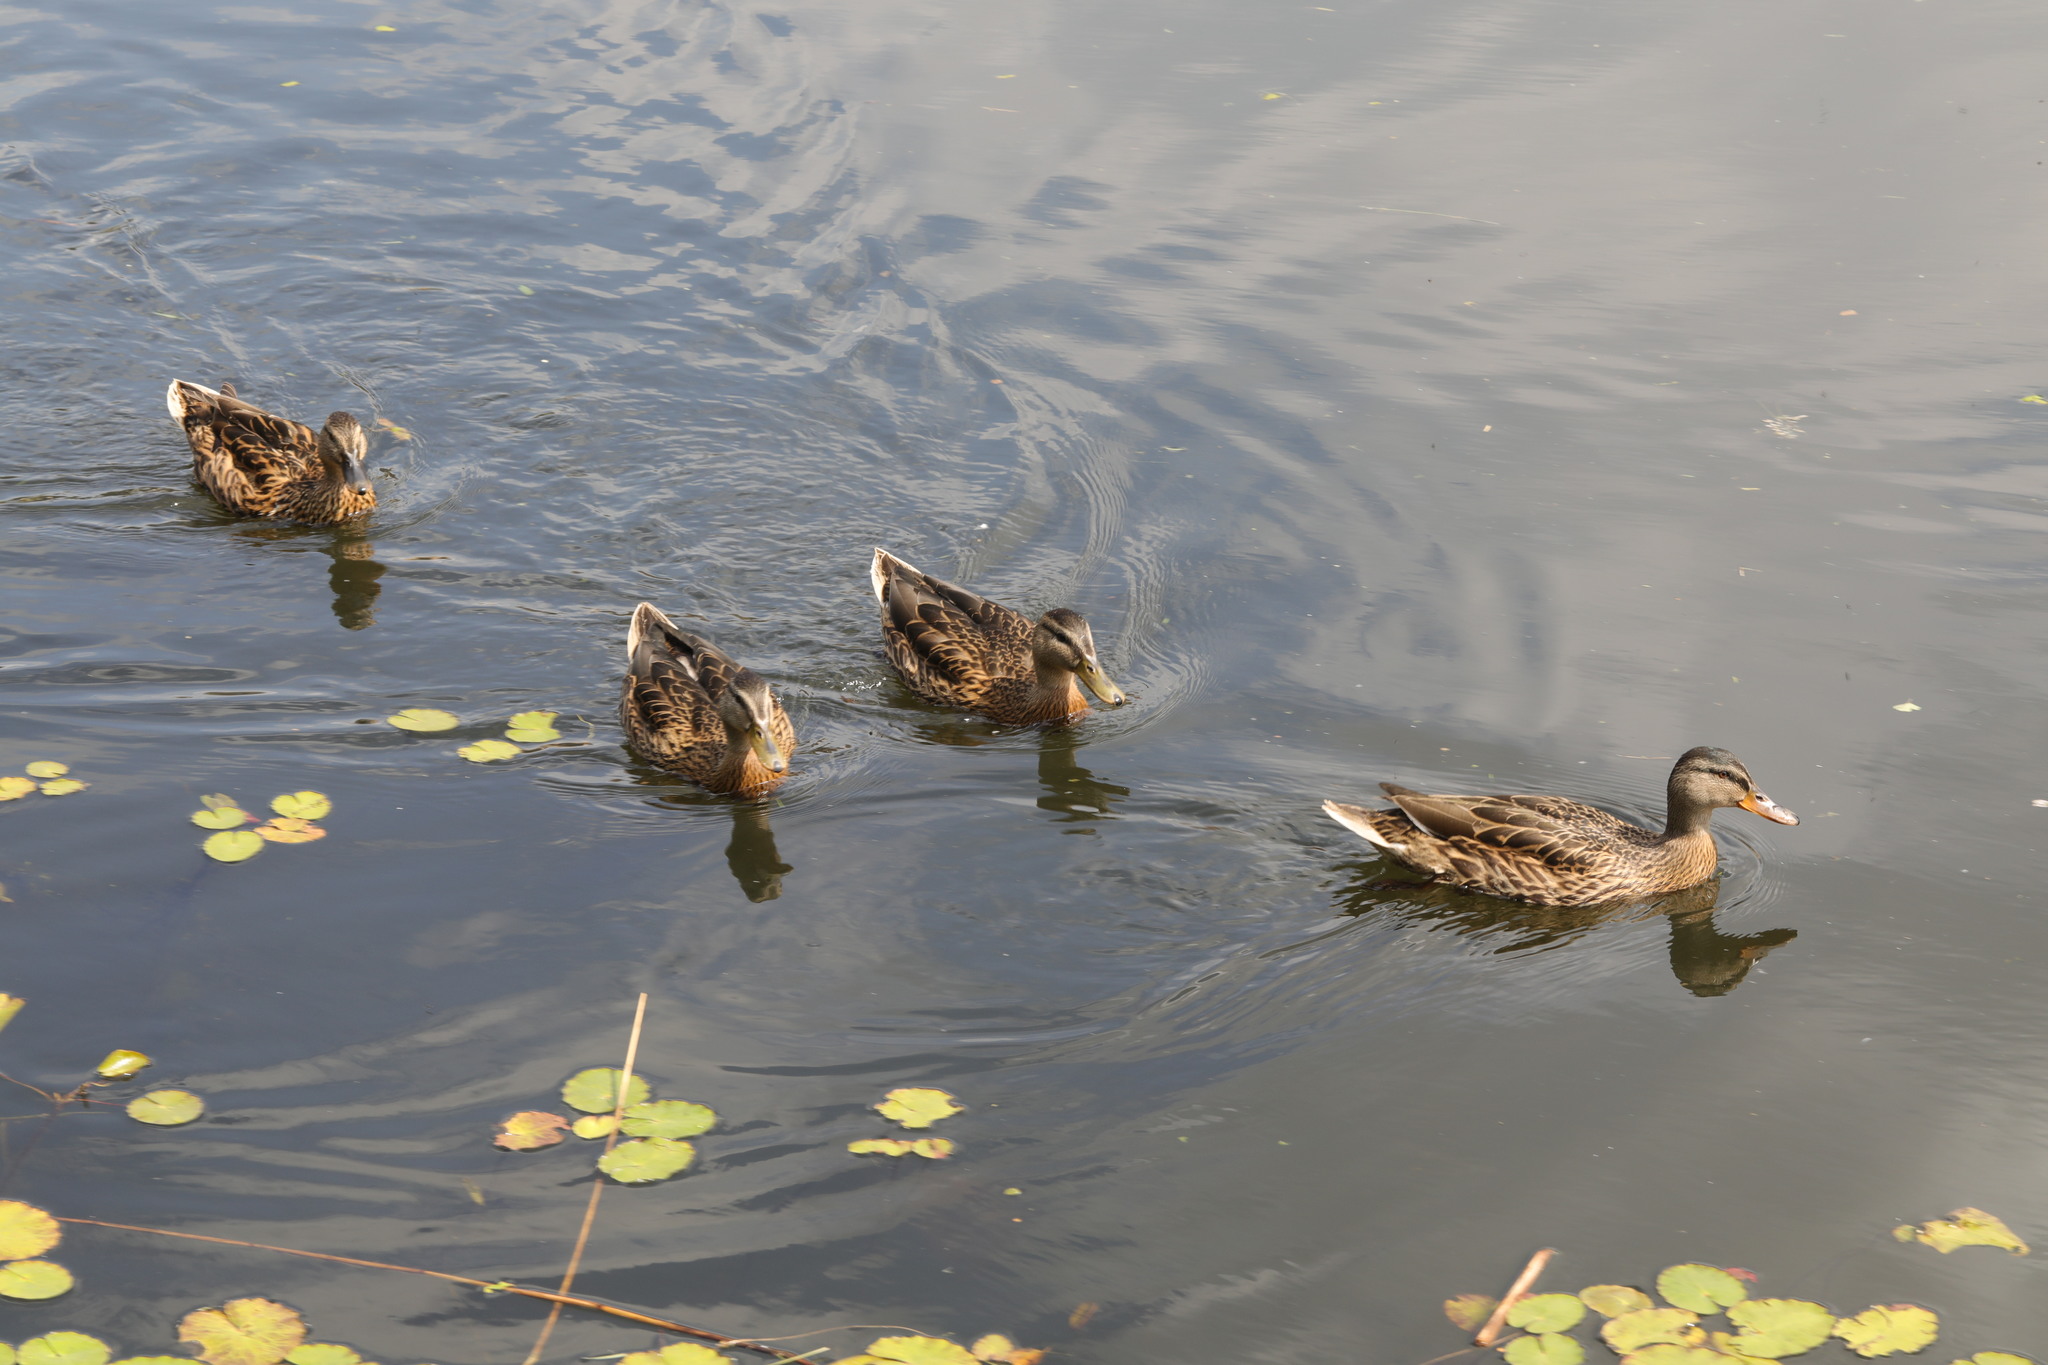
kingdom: Animalia
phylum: Chordata
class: Aves
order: Anseriformes
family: Anatidae
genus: Anas
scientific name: Anas platyrhynchos
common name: Mallard
